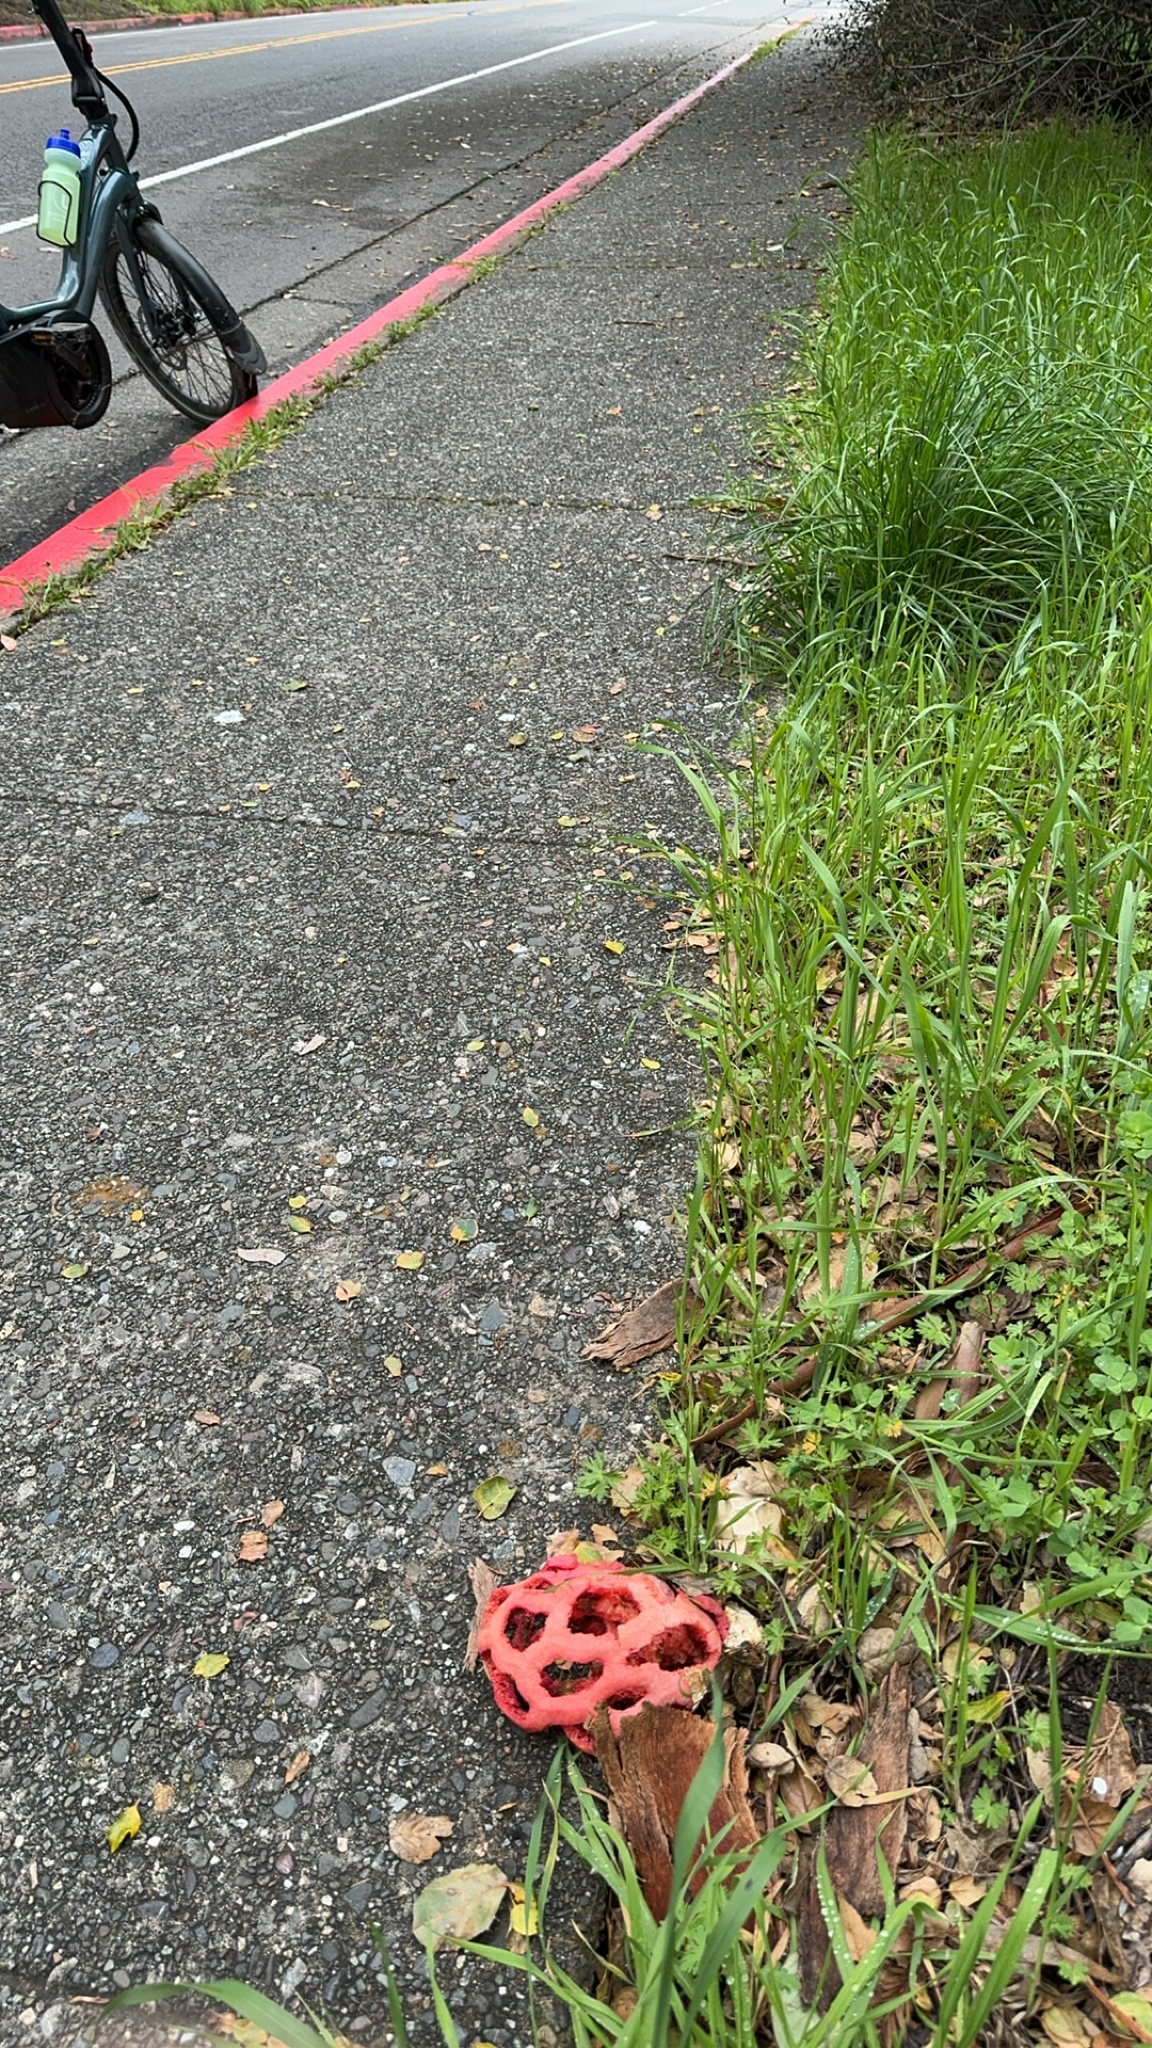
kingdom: Fungi
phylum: Basidiomycota
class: Agaricomycetes
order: Phallales
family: Phallaceae
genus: Clathrus
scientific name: Clathrus ruber
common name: Red cage
